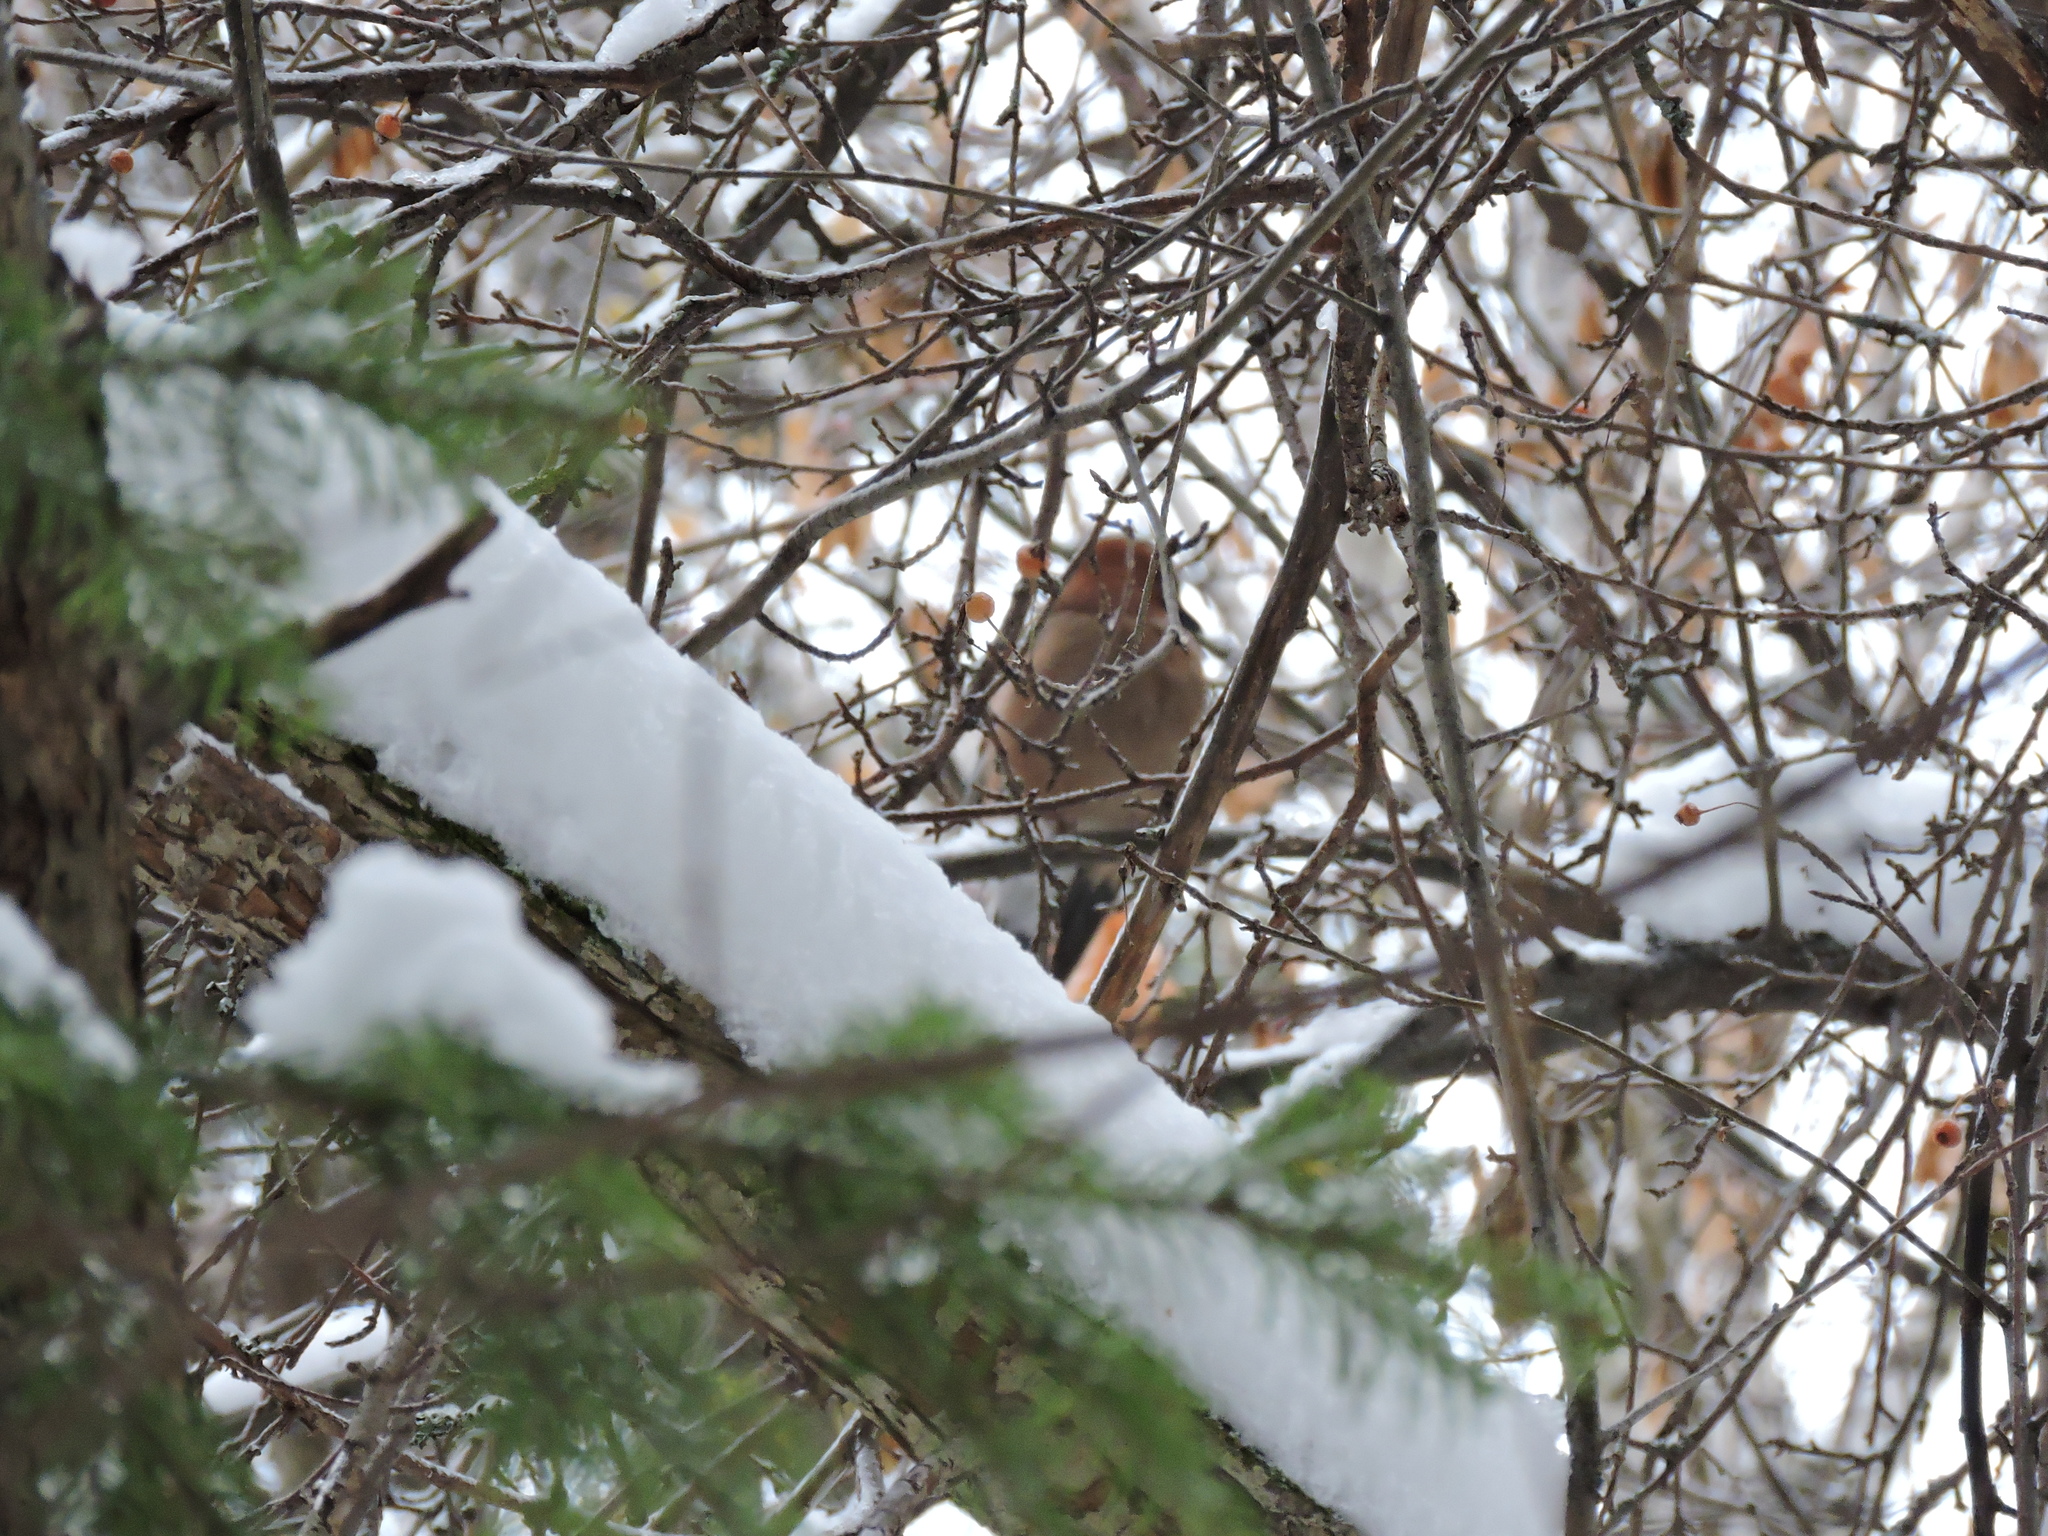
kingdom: Animalia
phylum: Chordata
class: Aves
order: Passeriformes
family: Corvidae
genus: Garrulus
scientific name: Garrulus glandarius
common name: Eurasian jay
